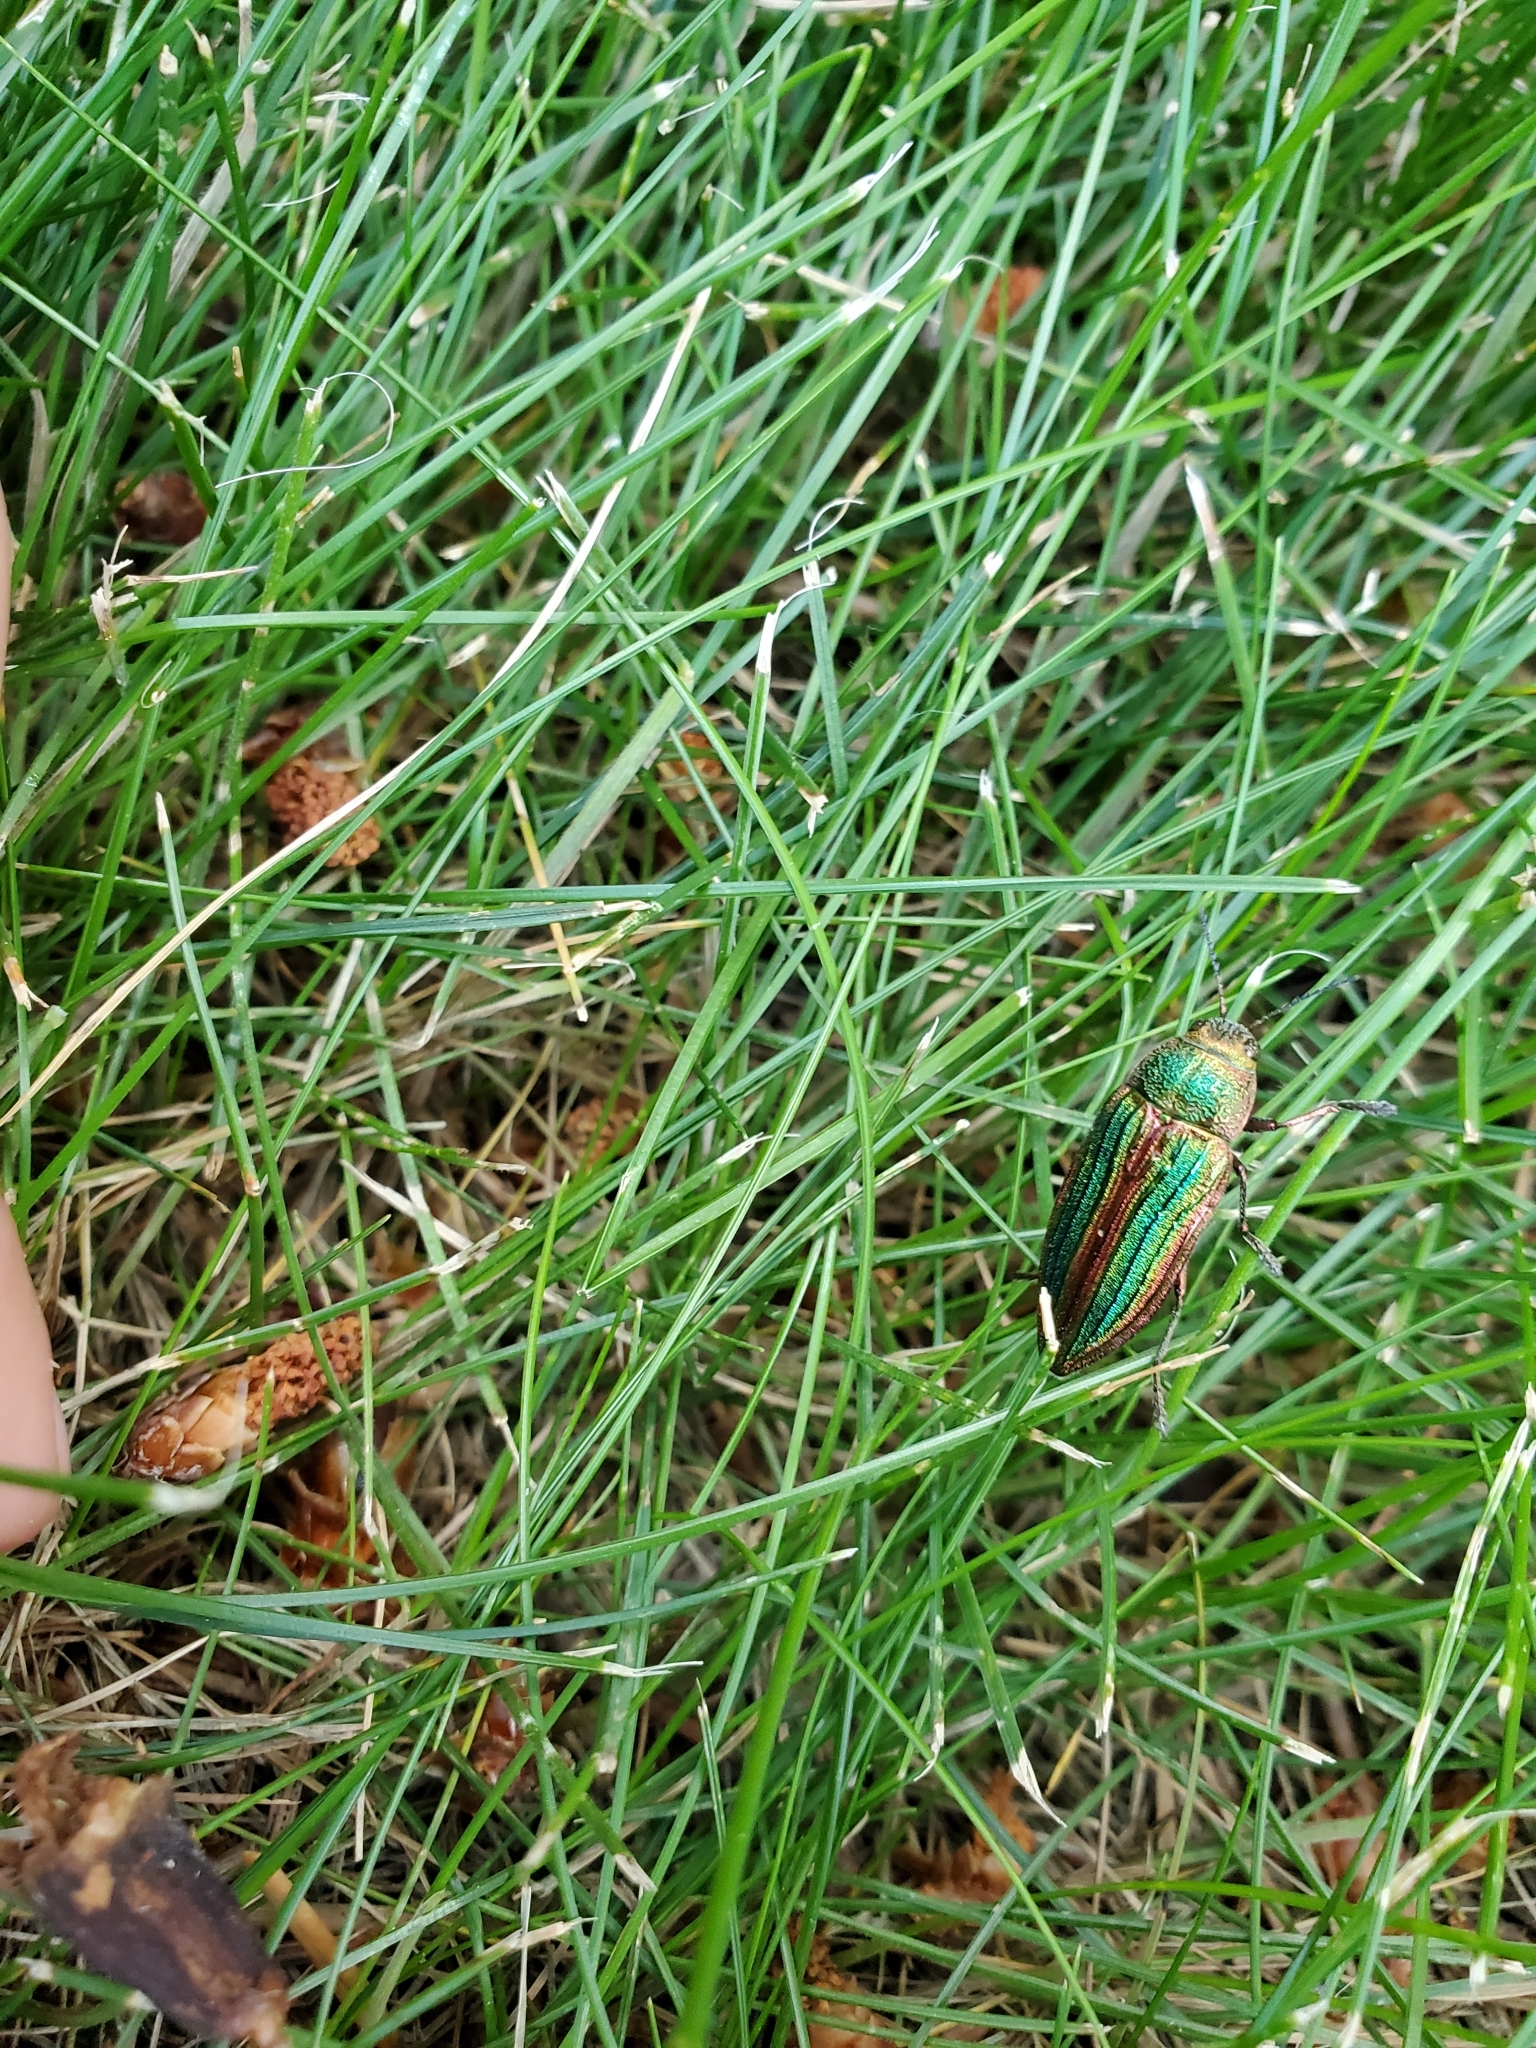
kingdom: Animalia
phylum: Arthropoda
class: Insecta
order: Coleoptera
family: Buprestidae
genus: Buprestis
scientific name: Buprestis aurulenta
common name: Golden buprestid
